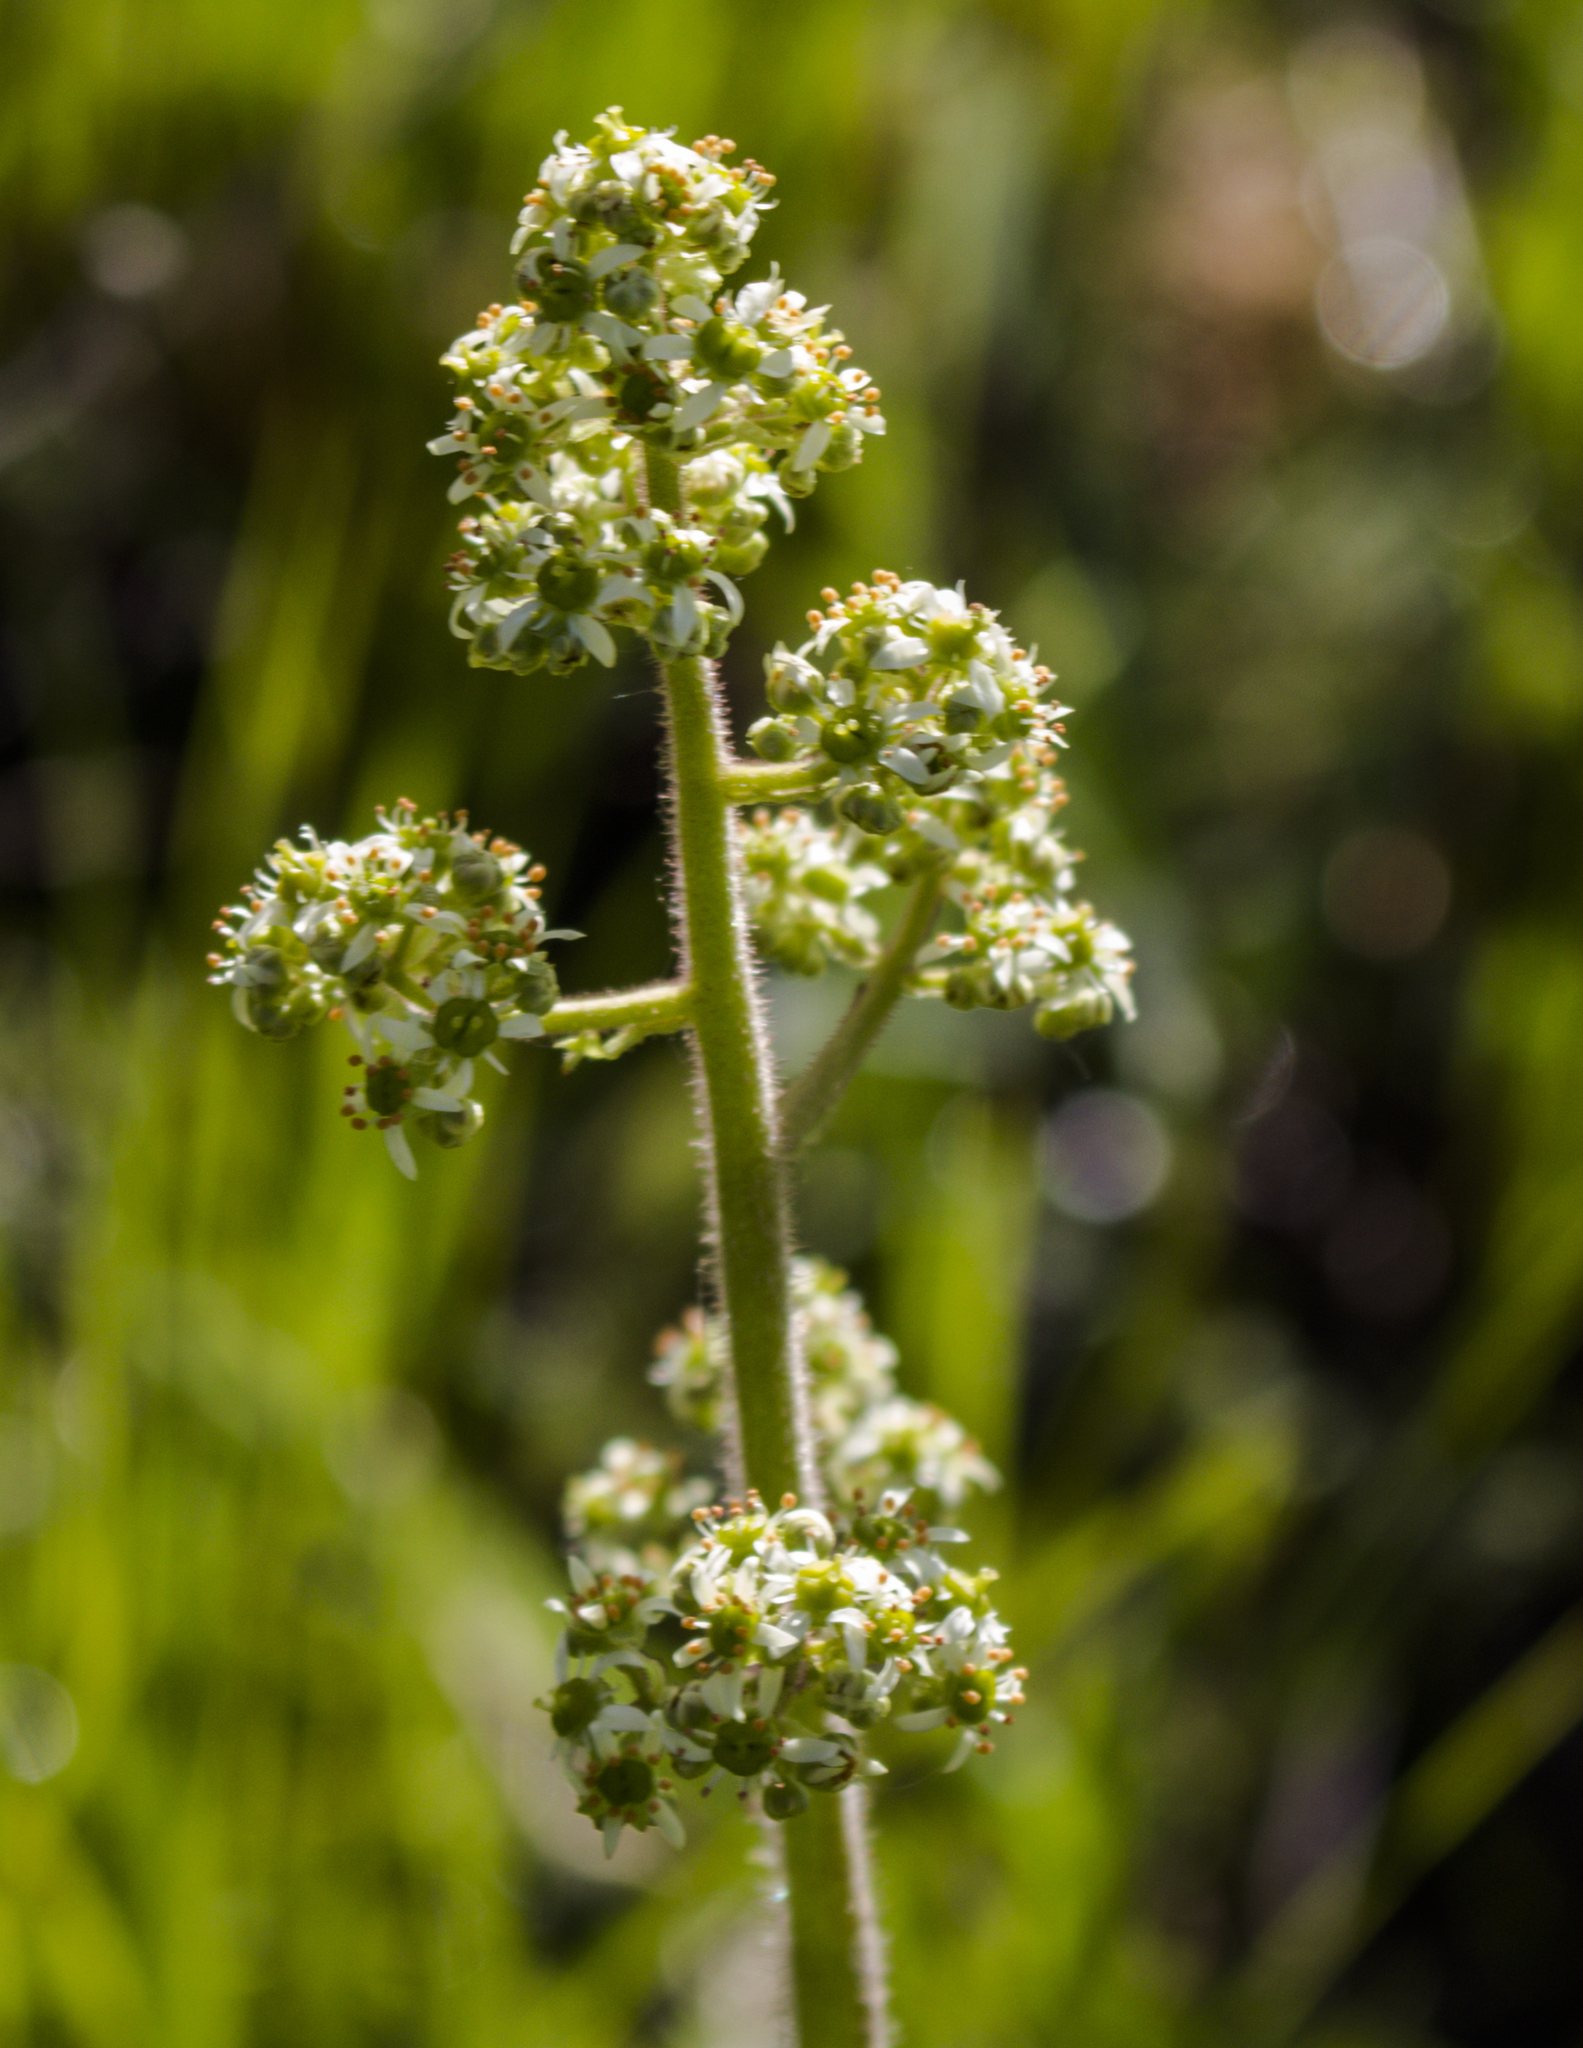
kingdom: Plantae
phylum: Tracheophyta
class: Magnoliopsida
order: Saxifragales
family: Saxifragaceae
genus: Micranthes
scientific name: Micranthes pensylvanica
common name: Marsh saxifrage
